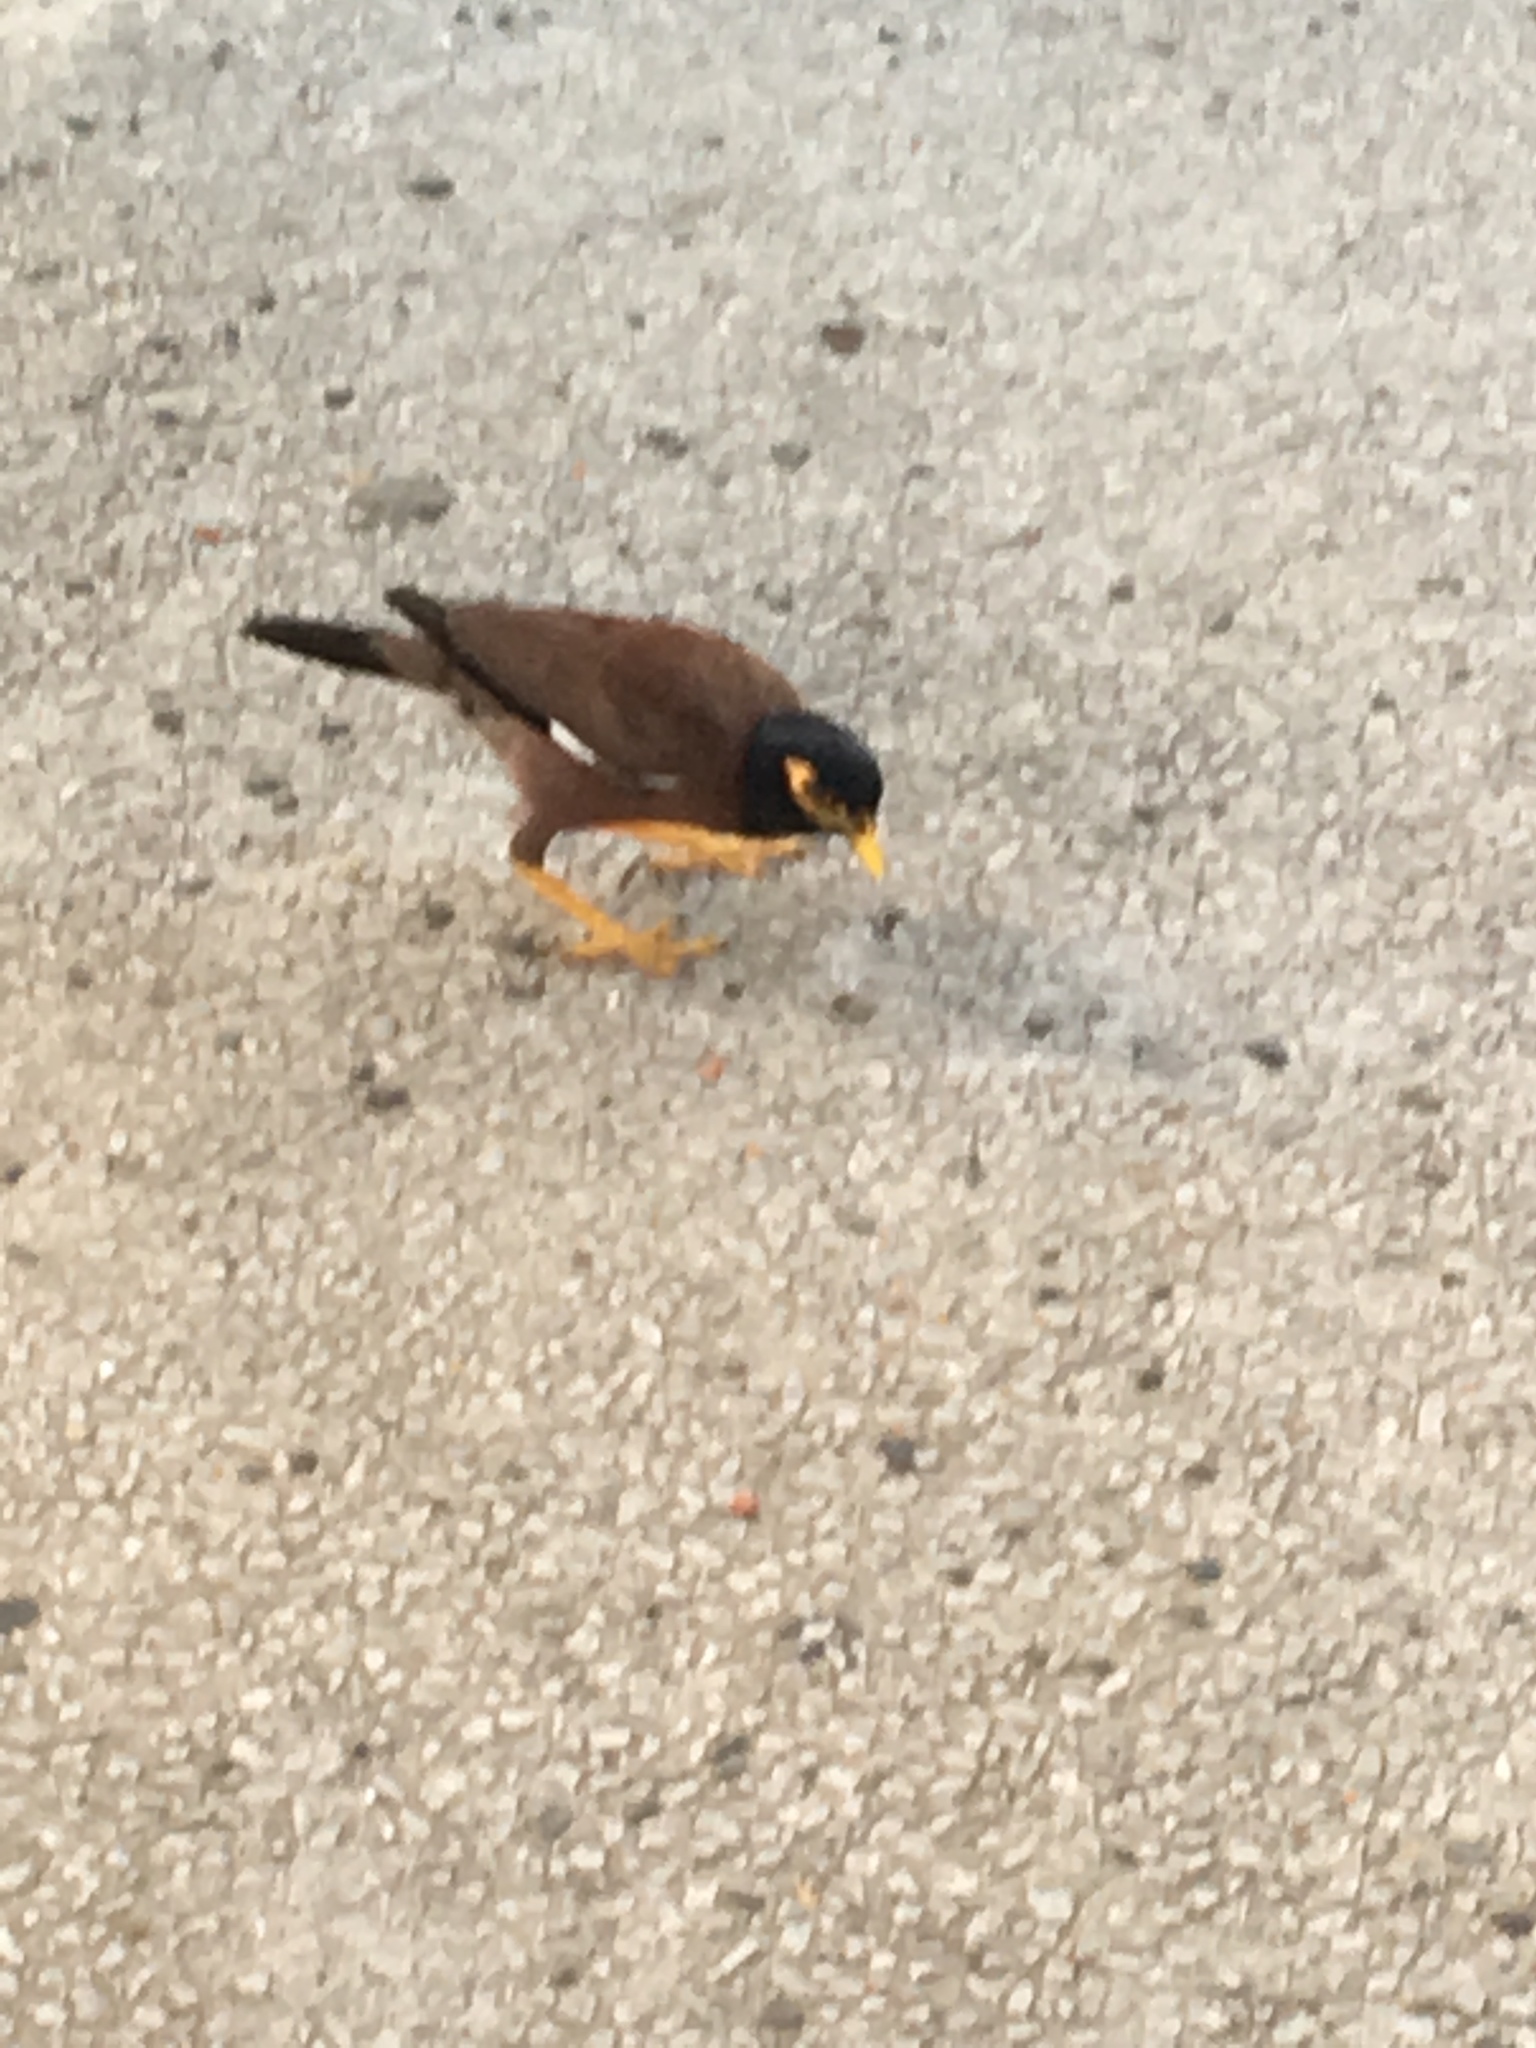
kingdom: Animalia
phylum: Chordata
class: Aves
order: Passeriformes
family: Sturnidae
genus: Acridotheres
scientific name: Acridotheres tristis
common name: Common myna
